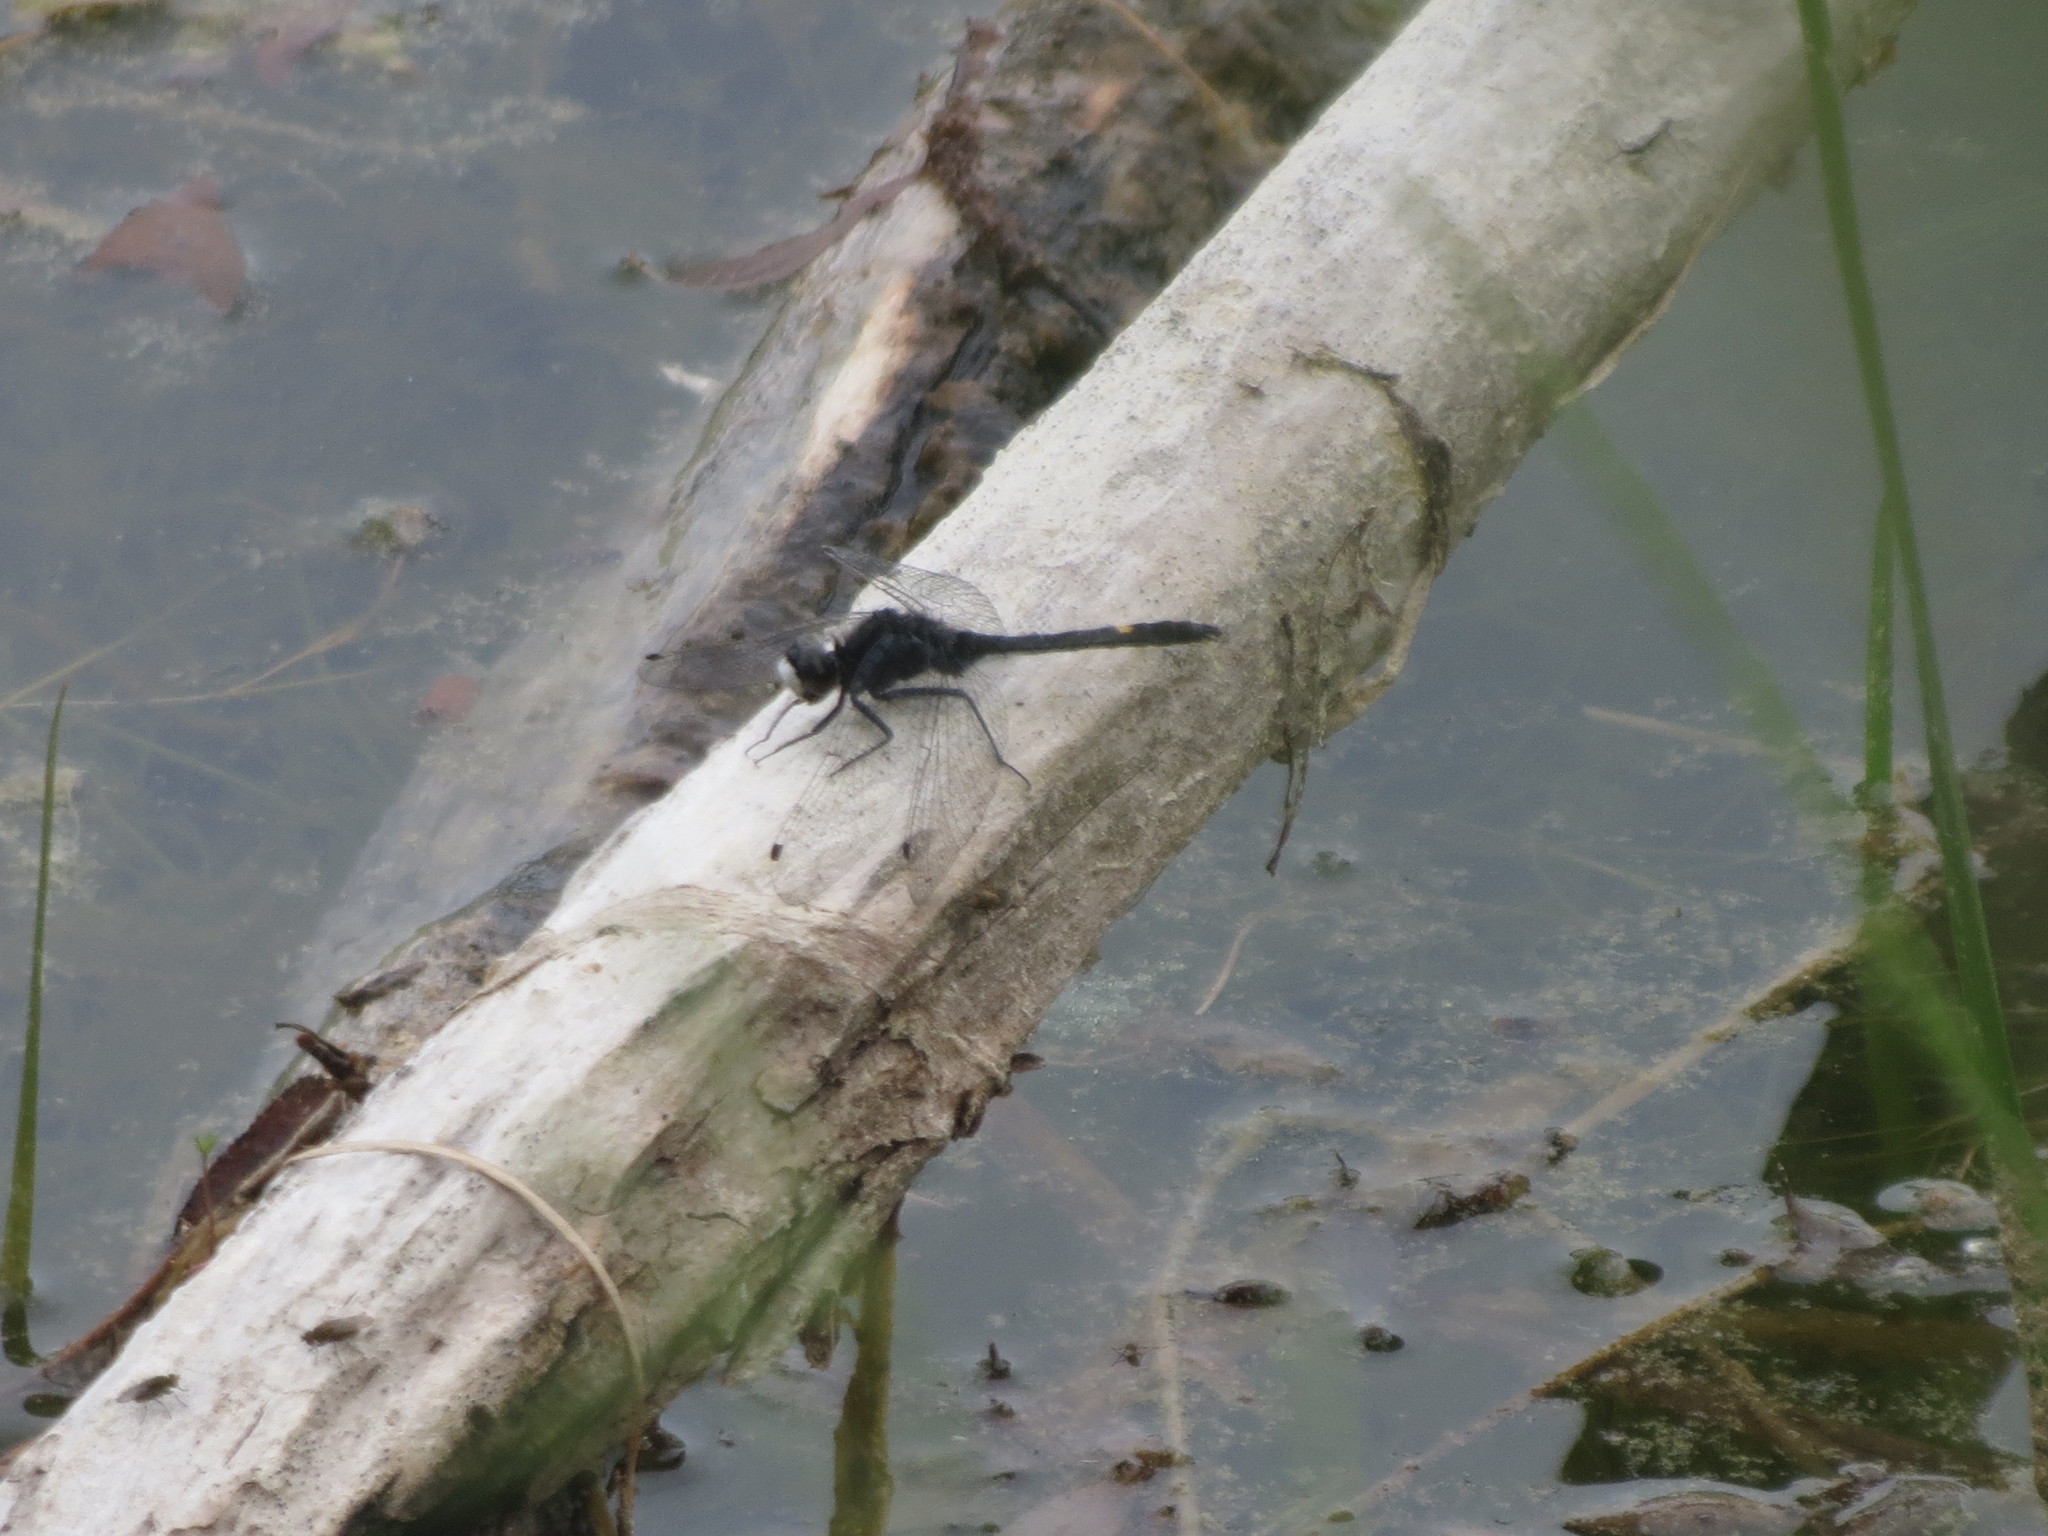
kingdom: Animalia
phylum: Arthropoda
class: Insecta
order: Odonata
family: Libellulidae
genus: Leucorrhinia
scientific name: Leucorrhinia intacta
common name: Dot-tailed whiteface
